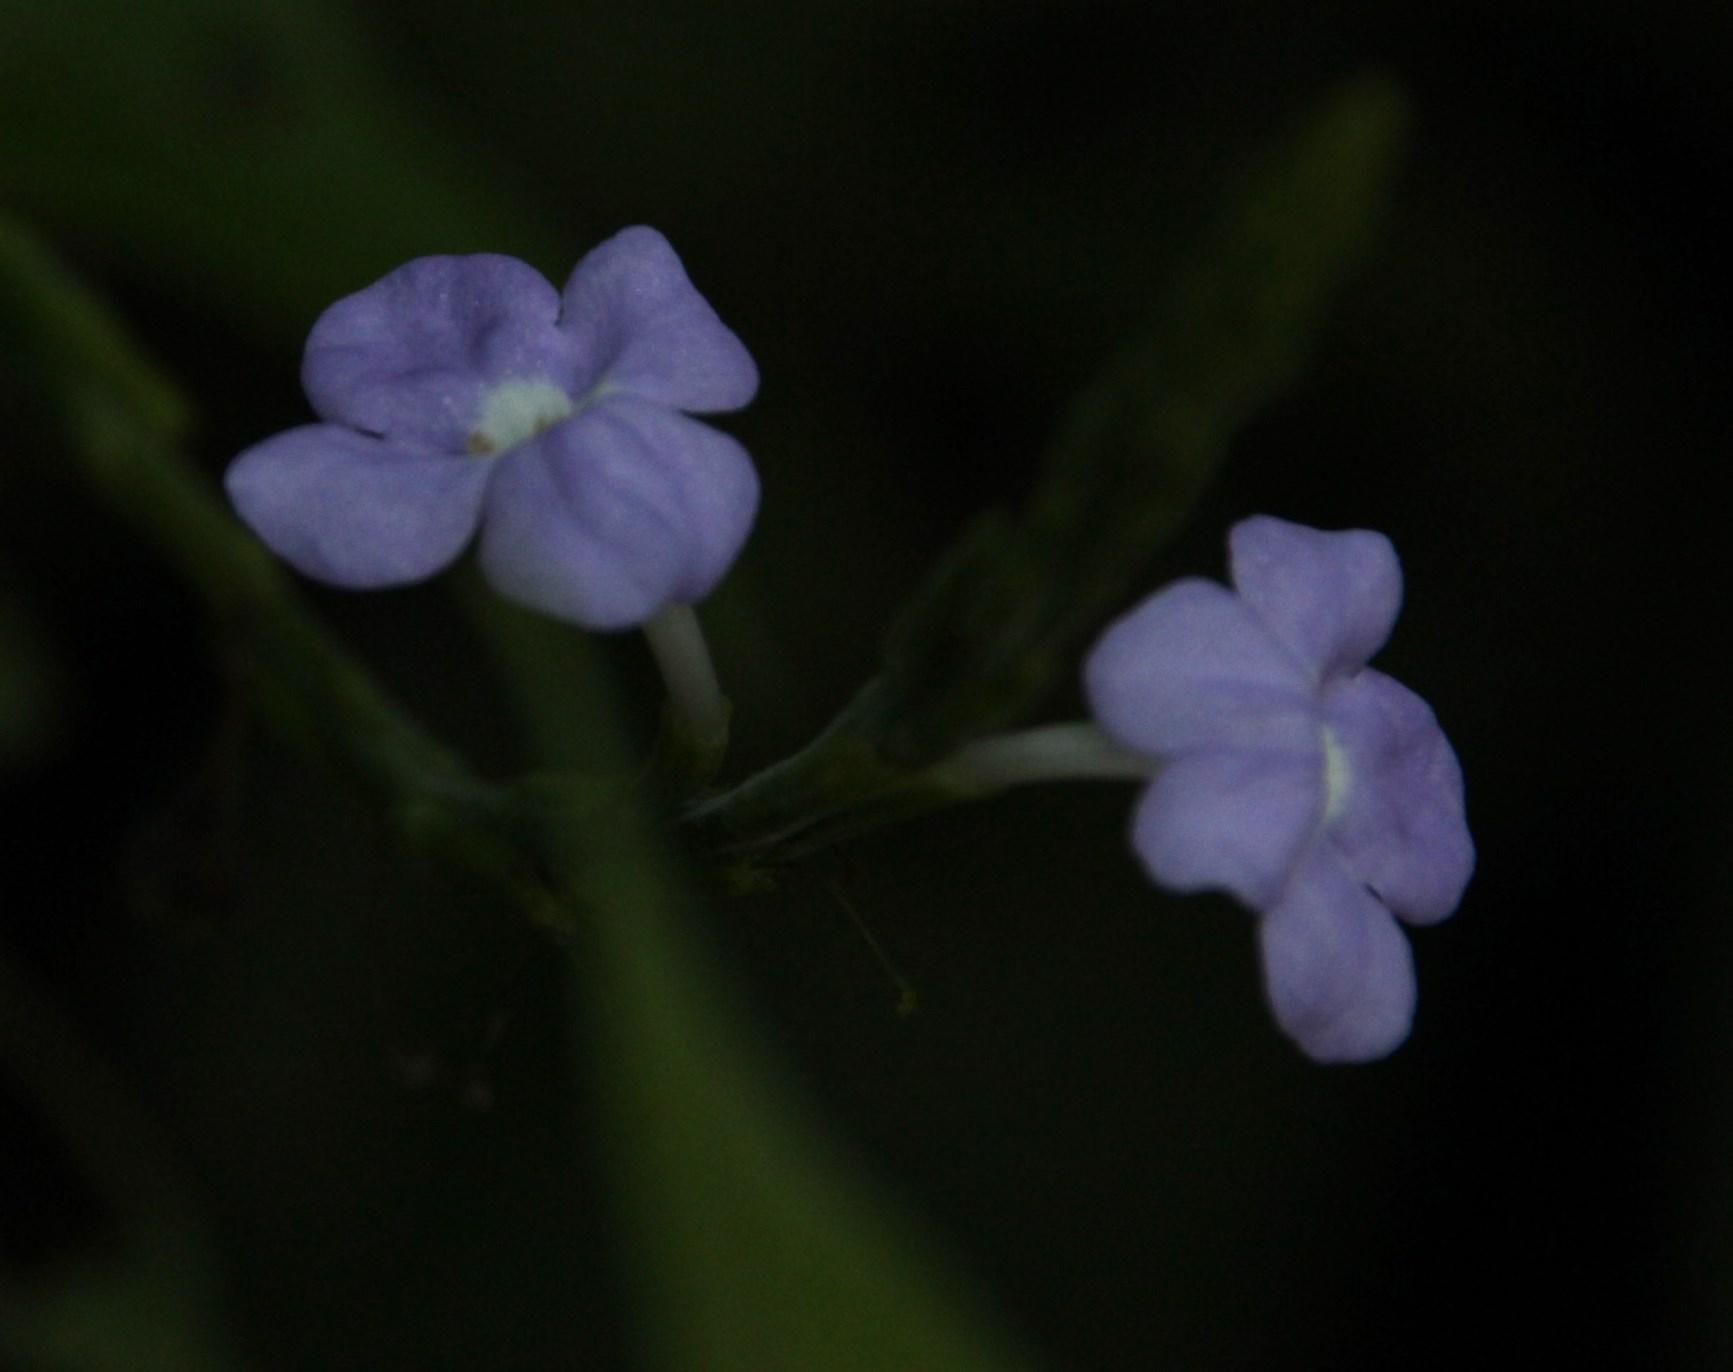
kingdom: Plantae
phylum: Tracheophyta
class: Magnoliopsida
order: Lamiales
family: Verbenaceae
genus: Bouchea
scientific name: Bouchea pseudogervao
